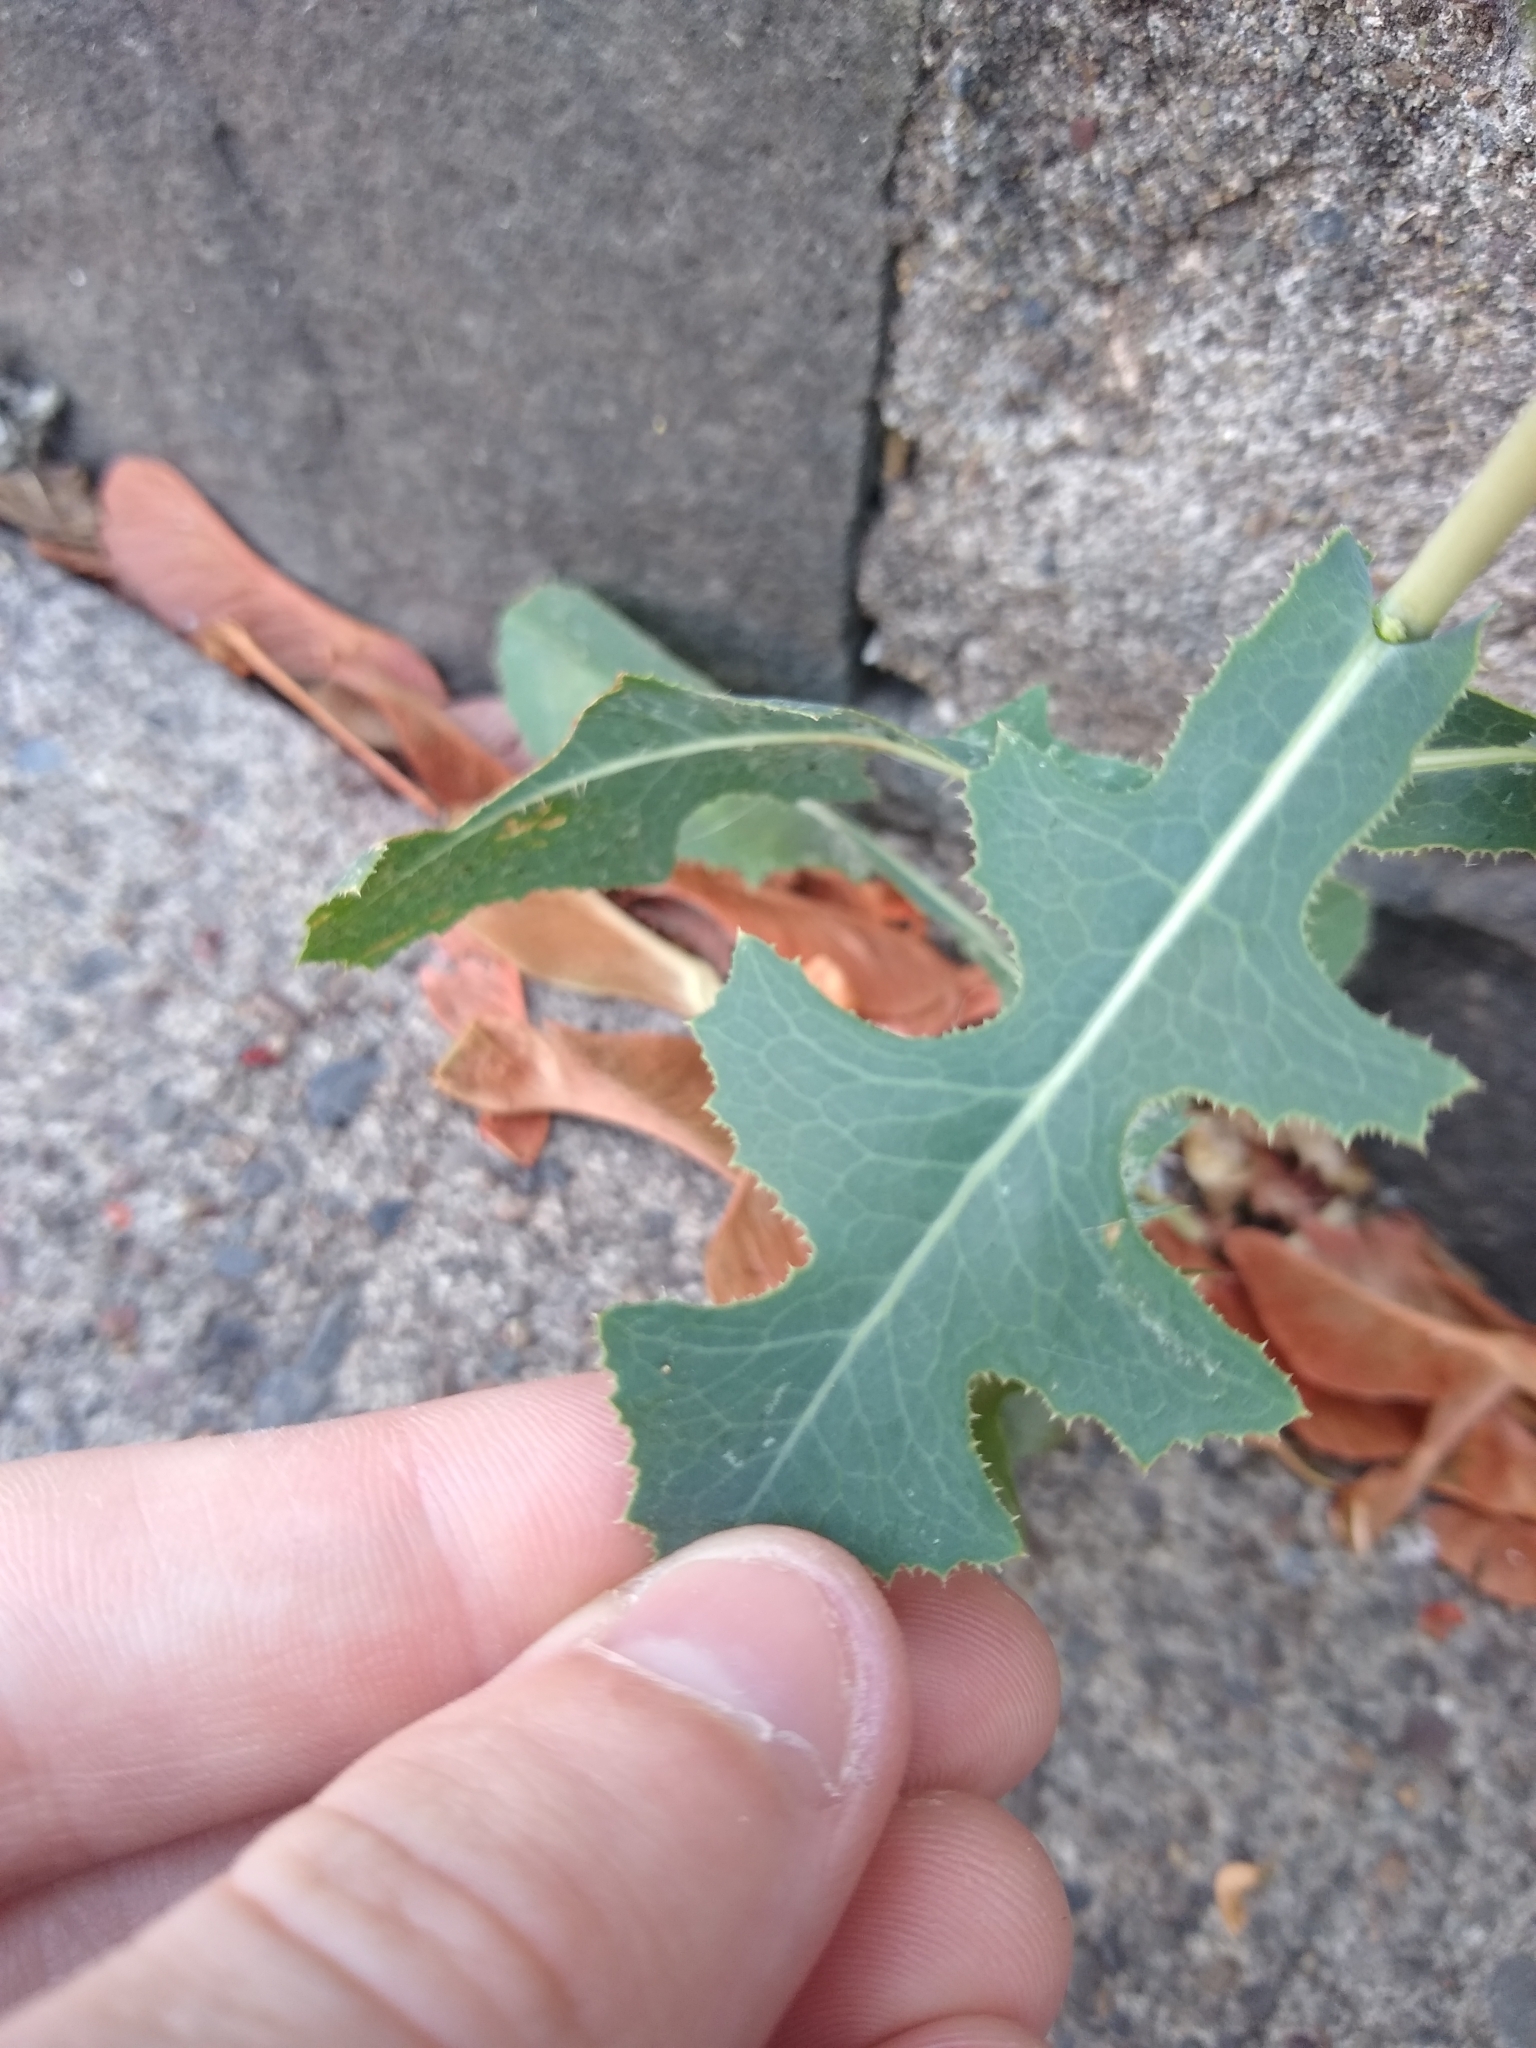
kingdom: Plantae
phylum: Tracheophyta
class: Magnoliopsida
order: Asterales
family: Asteraceae
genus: Lactuca
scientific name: Lactuca serriola
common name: Prickly lettuce
